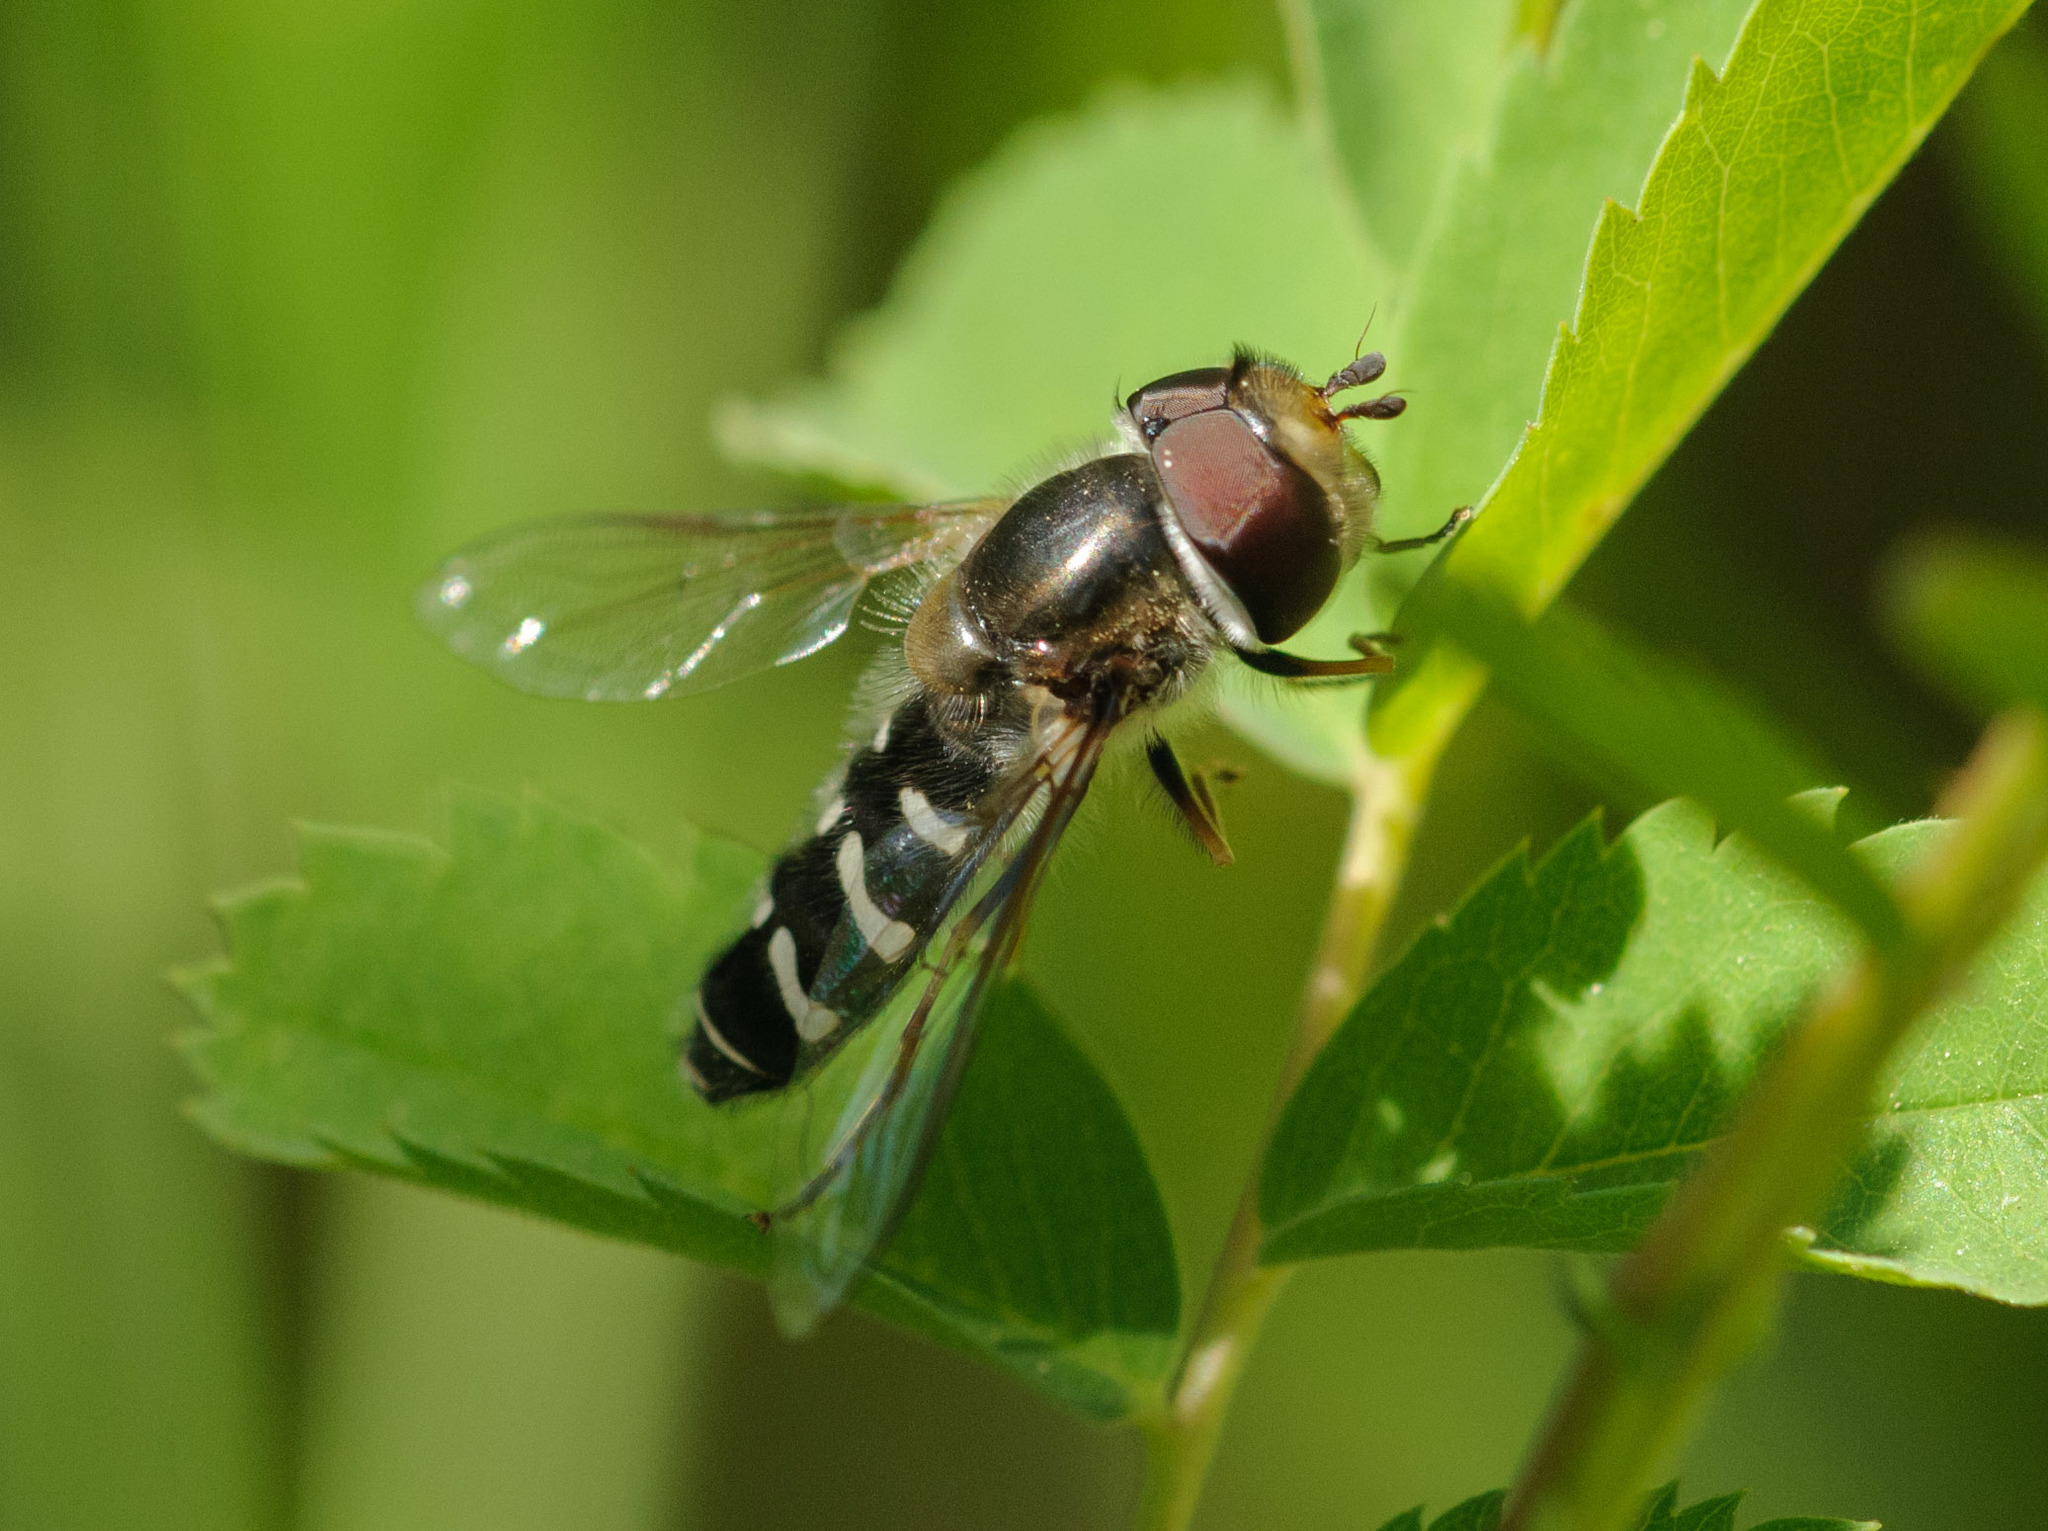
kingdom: Animalia
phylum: Arthropoda
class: Insecta
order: Diptera
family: Syrphidae
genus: Scaeva
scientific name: Scaeva affinis
